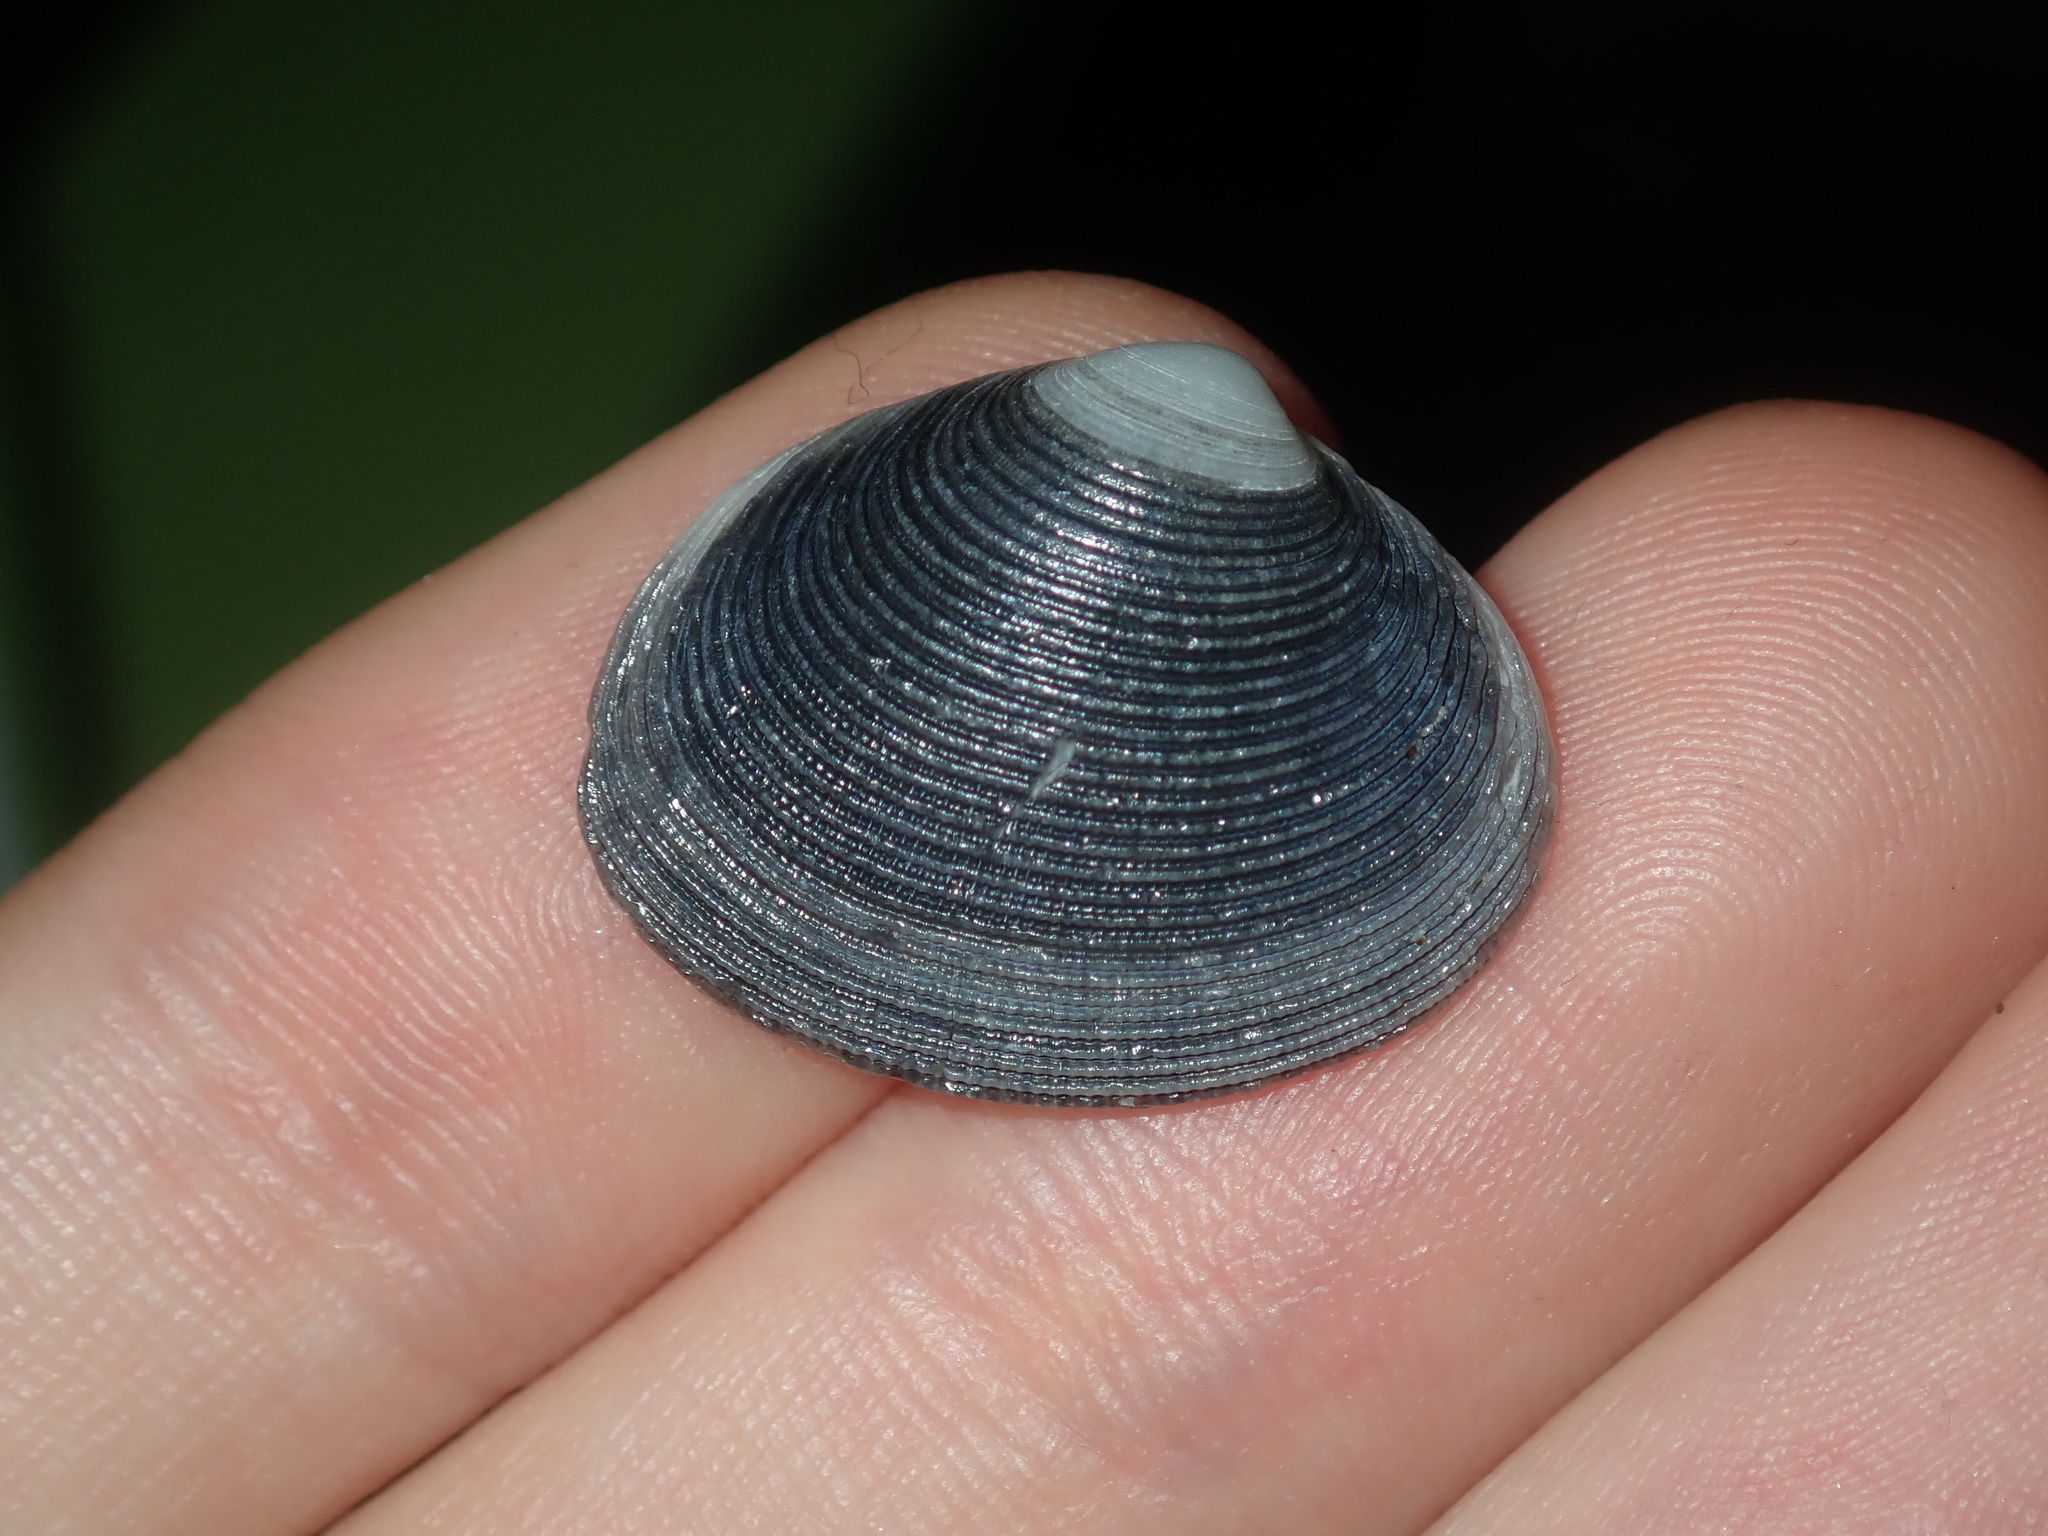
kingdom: Animalia
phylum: Mollusca
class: Bivalvia
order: Venerida
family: Veneridae
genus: Tawera
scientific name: Tawera lagopus
